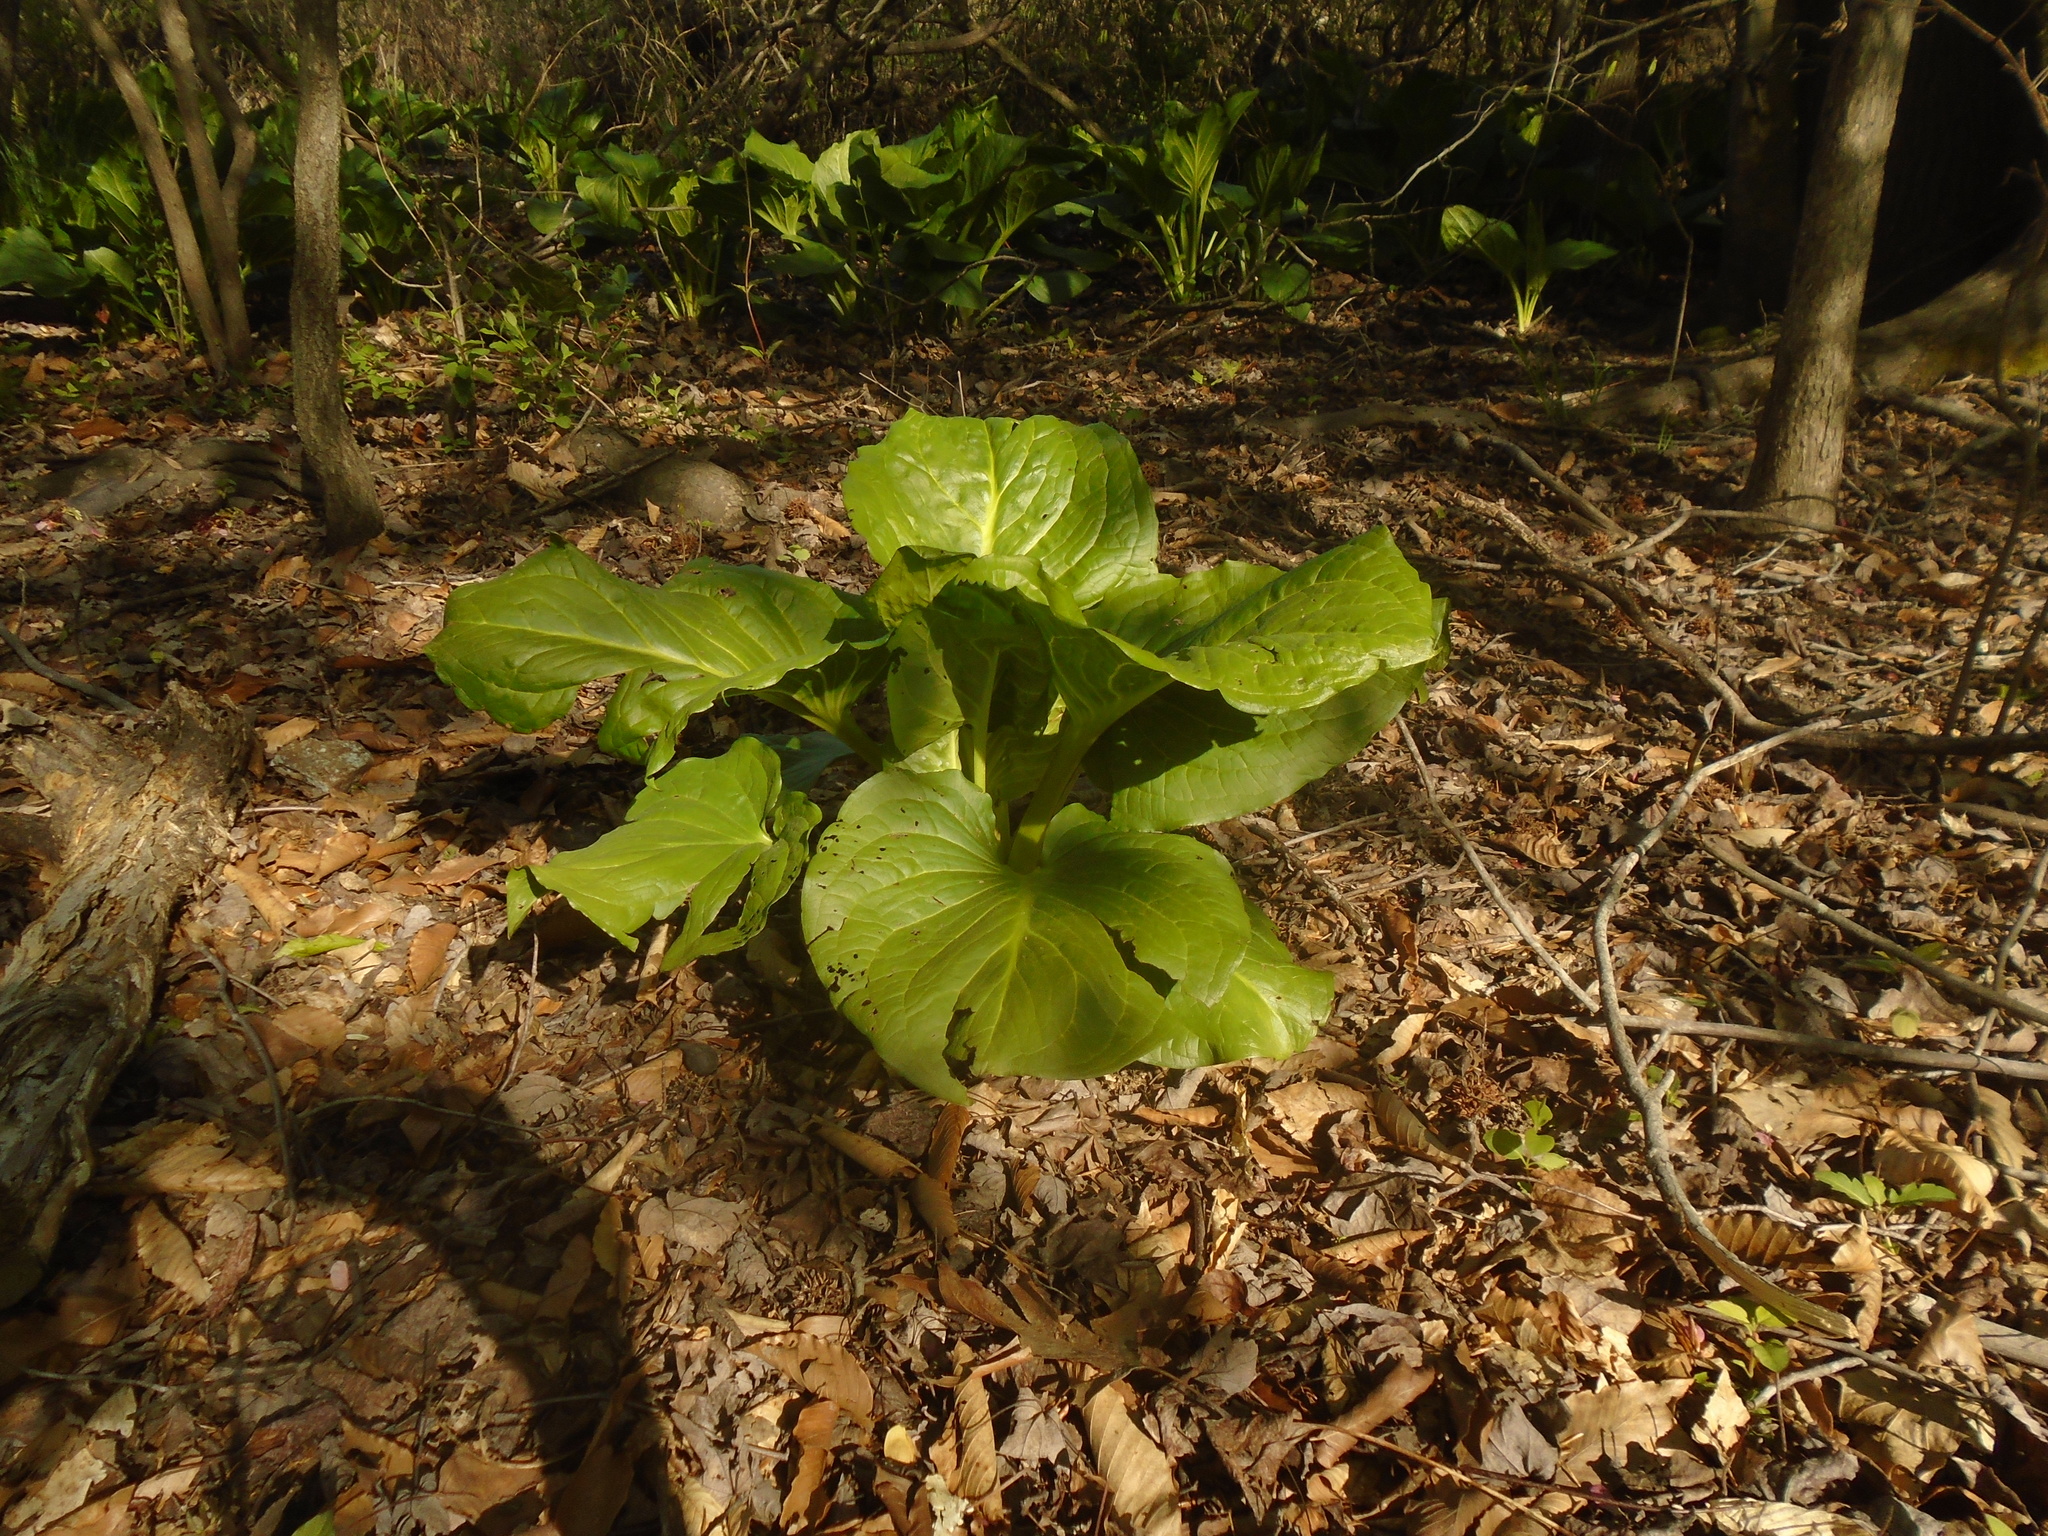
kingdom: Plantae
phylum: Tracheophyta
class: Liliopsida
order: Alismatales
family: Araceae
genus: Symplocarpus
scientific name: Symplocarpus foetidus
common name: Eastern skunk cabbage
